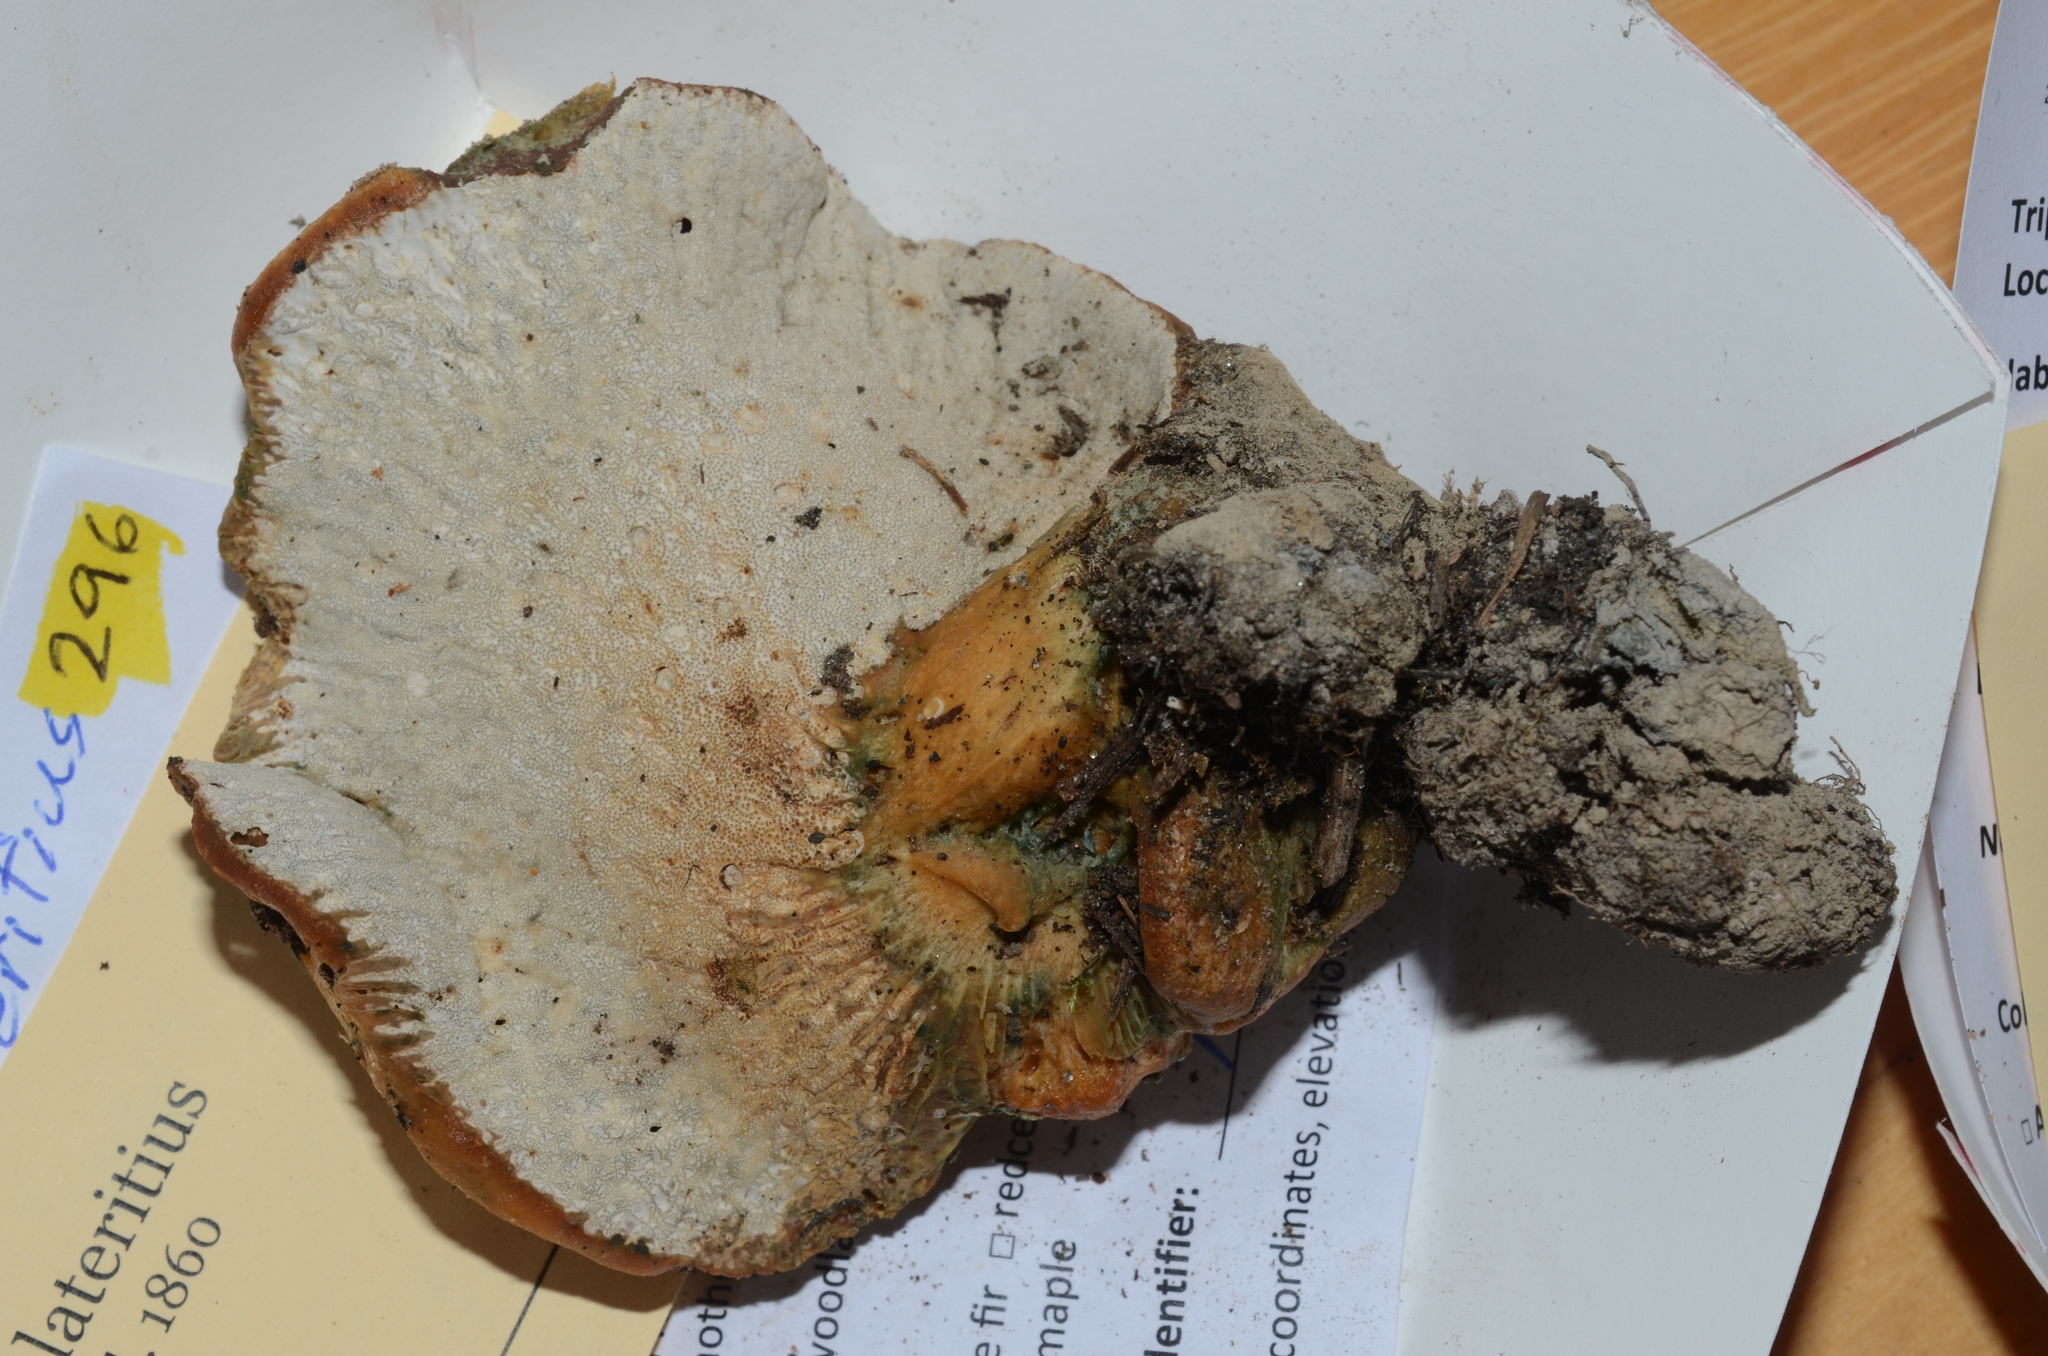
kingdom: Fungi
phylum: Ascomycota
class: Sordariomycetes
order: Hypocreales
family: Hypocreaceae
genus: Hypomyces
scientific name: Hypomyces lateritius
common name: Ochre gillgobbler
